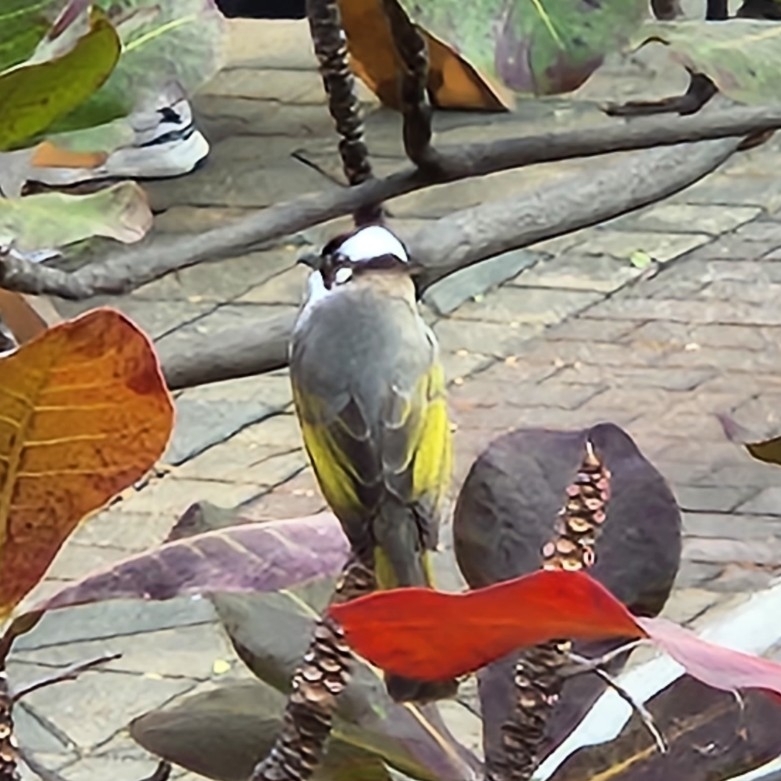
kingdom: Animalia
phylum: Chordata
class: Aves
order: Passeriformes
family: Pycnonotidae
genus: Pycnonotus
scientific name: Pycnonotus sinensis
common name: Light-vented bulbul
